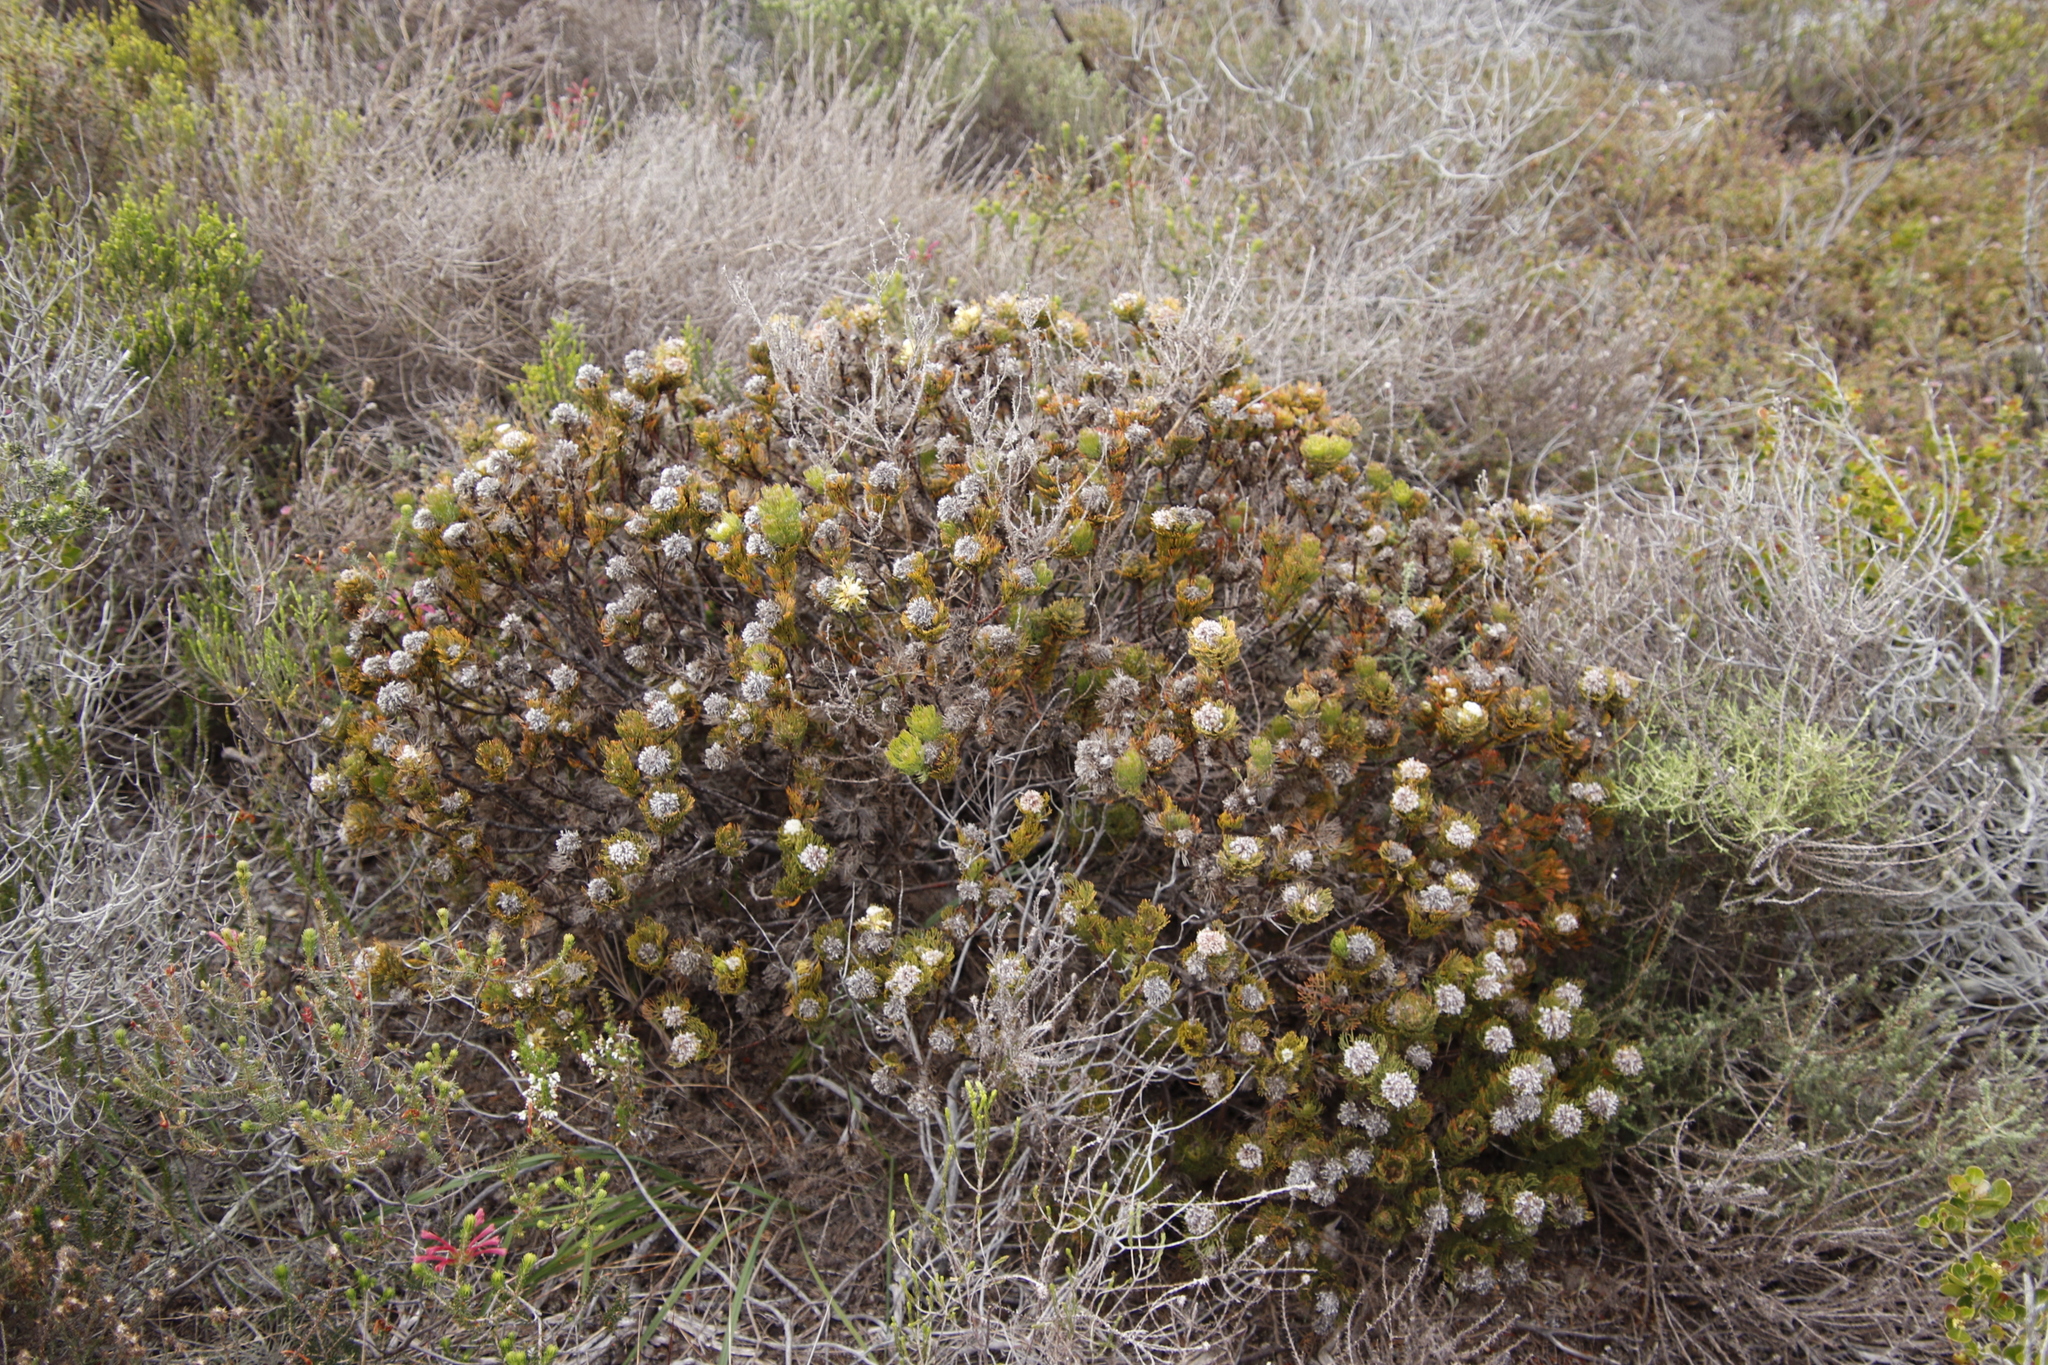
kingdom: Plantae
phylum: Tracheophyta
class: Magnoliopsida
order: Proteales
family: Proteaceae
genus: Serruria
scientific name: Serruria villosa
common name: Golden spiderhead
